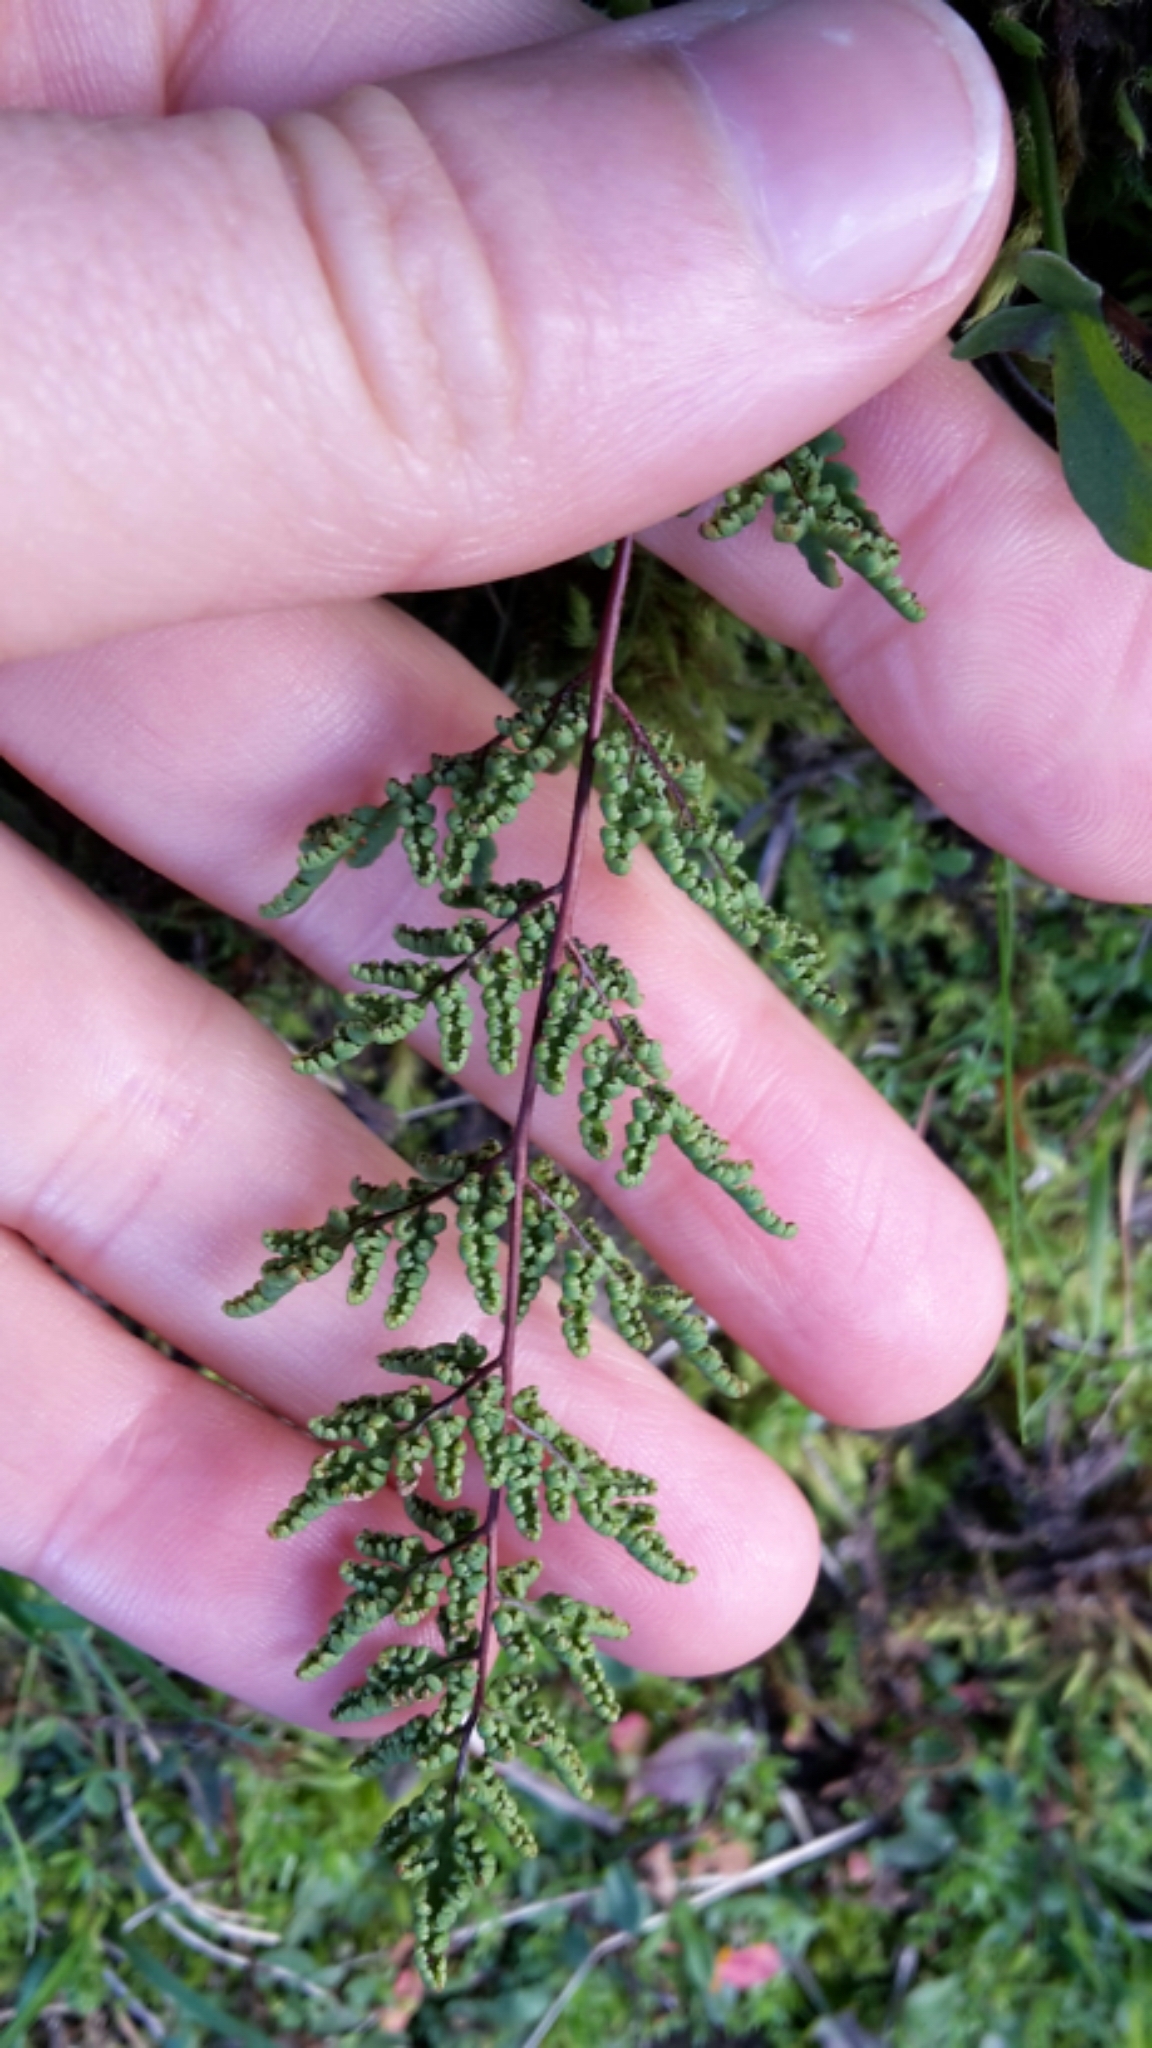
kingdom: Plantae
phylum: Tracheophyta
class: Polypodiopsida
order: Polypodiales
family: Pteridaceae
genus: Cheilanthes
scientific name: Cheilanthes sieberi
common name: Mulga fern
